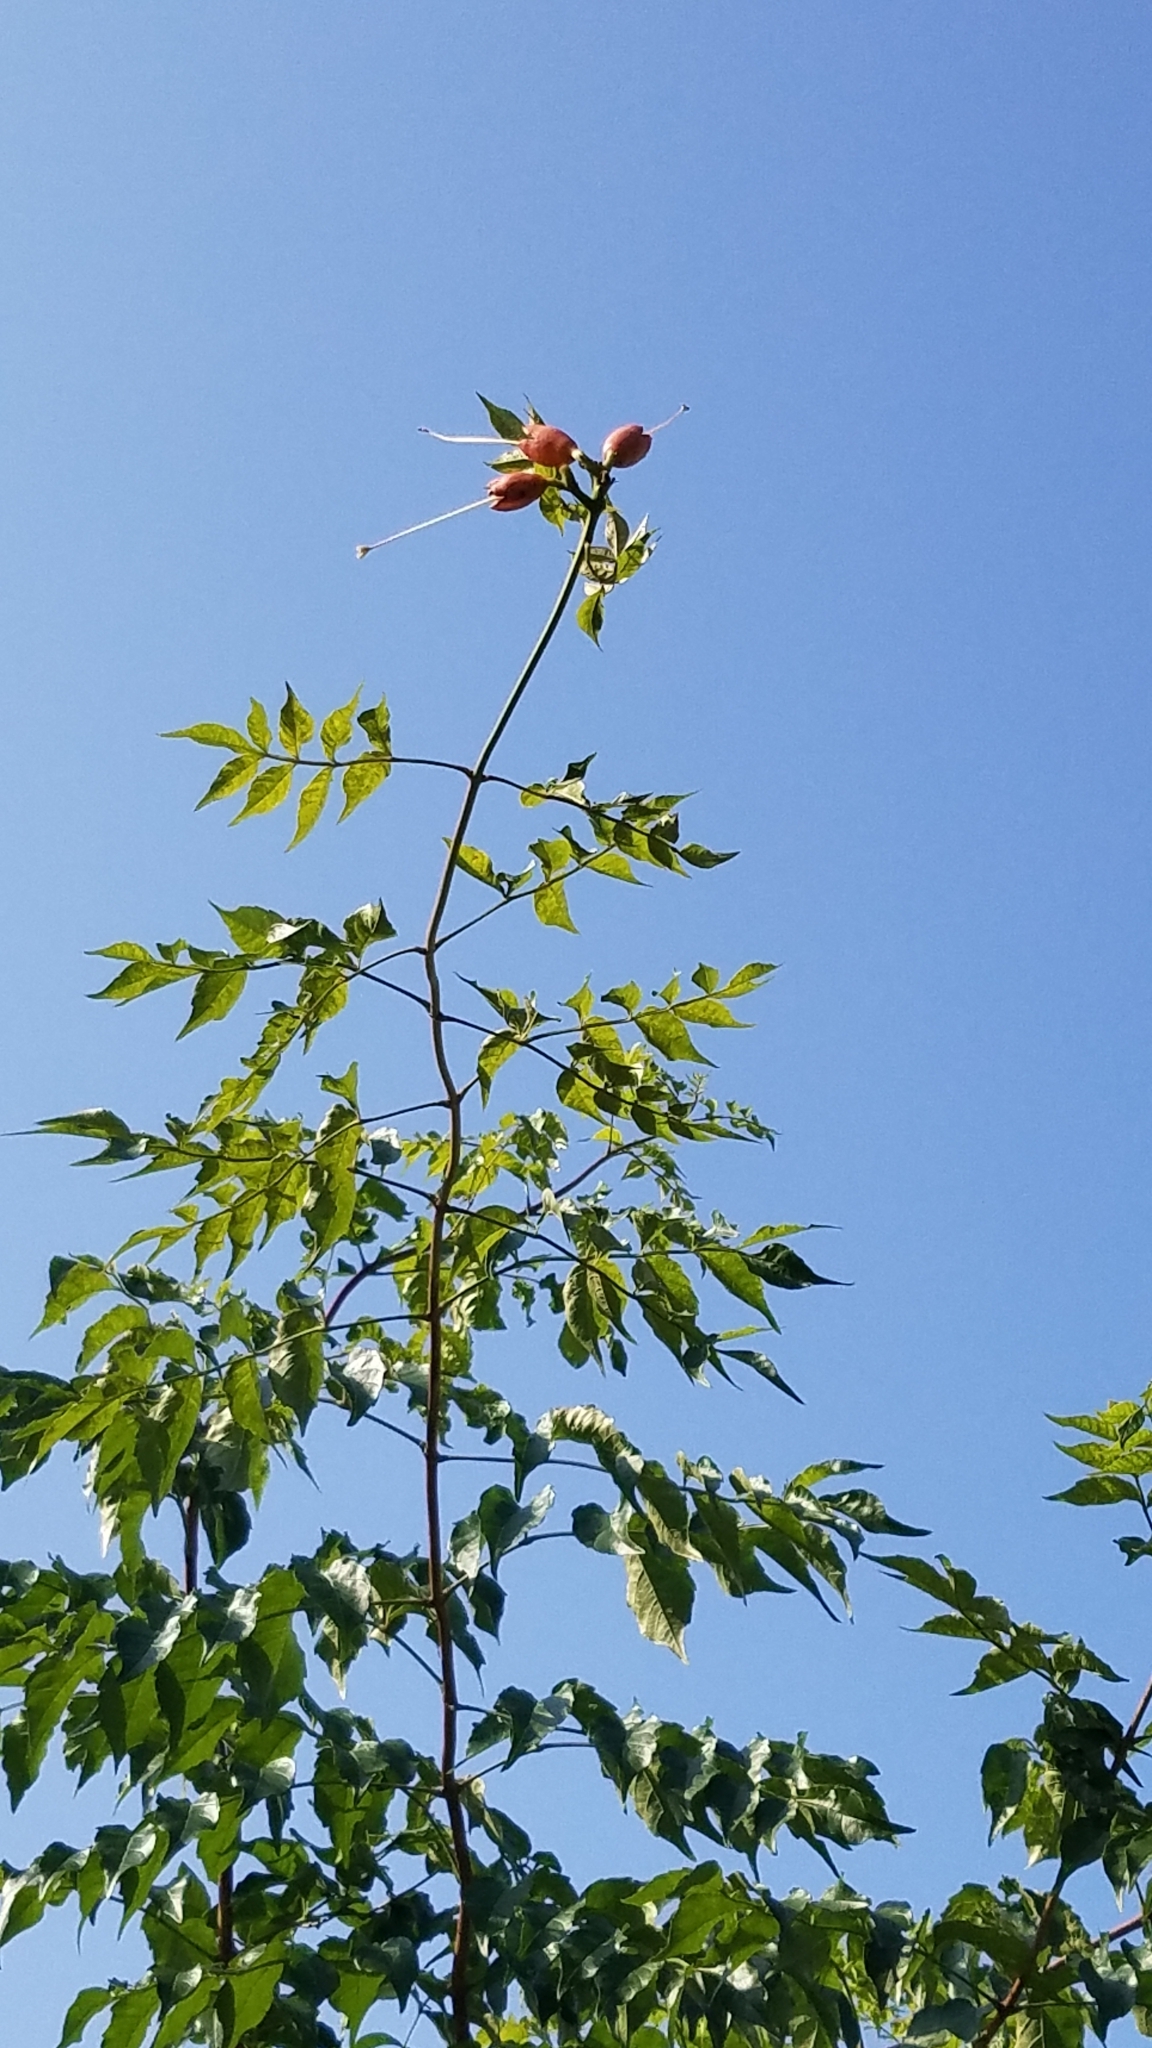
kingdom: Plantae
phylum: Tracheophyta
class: Magnoliopsida
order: Lamiales
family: Bignoniaceae
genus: Campsis
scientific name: Campsis radicans
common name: Trumpet-creeper
